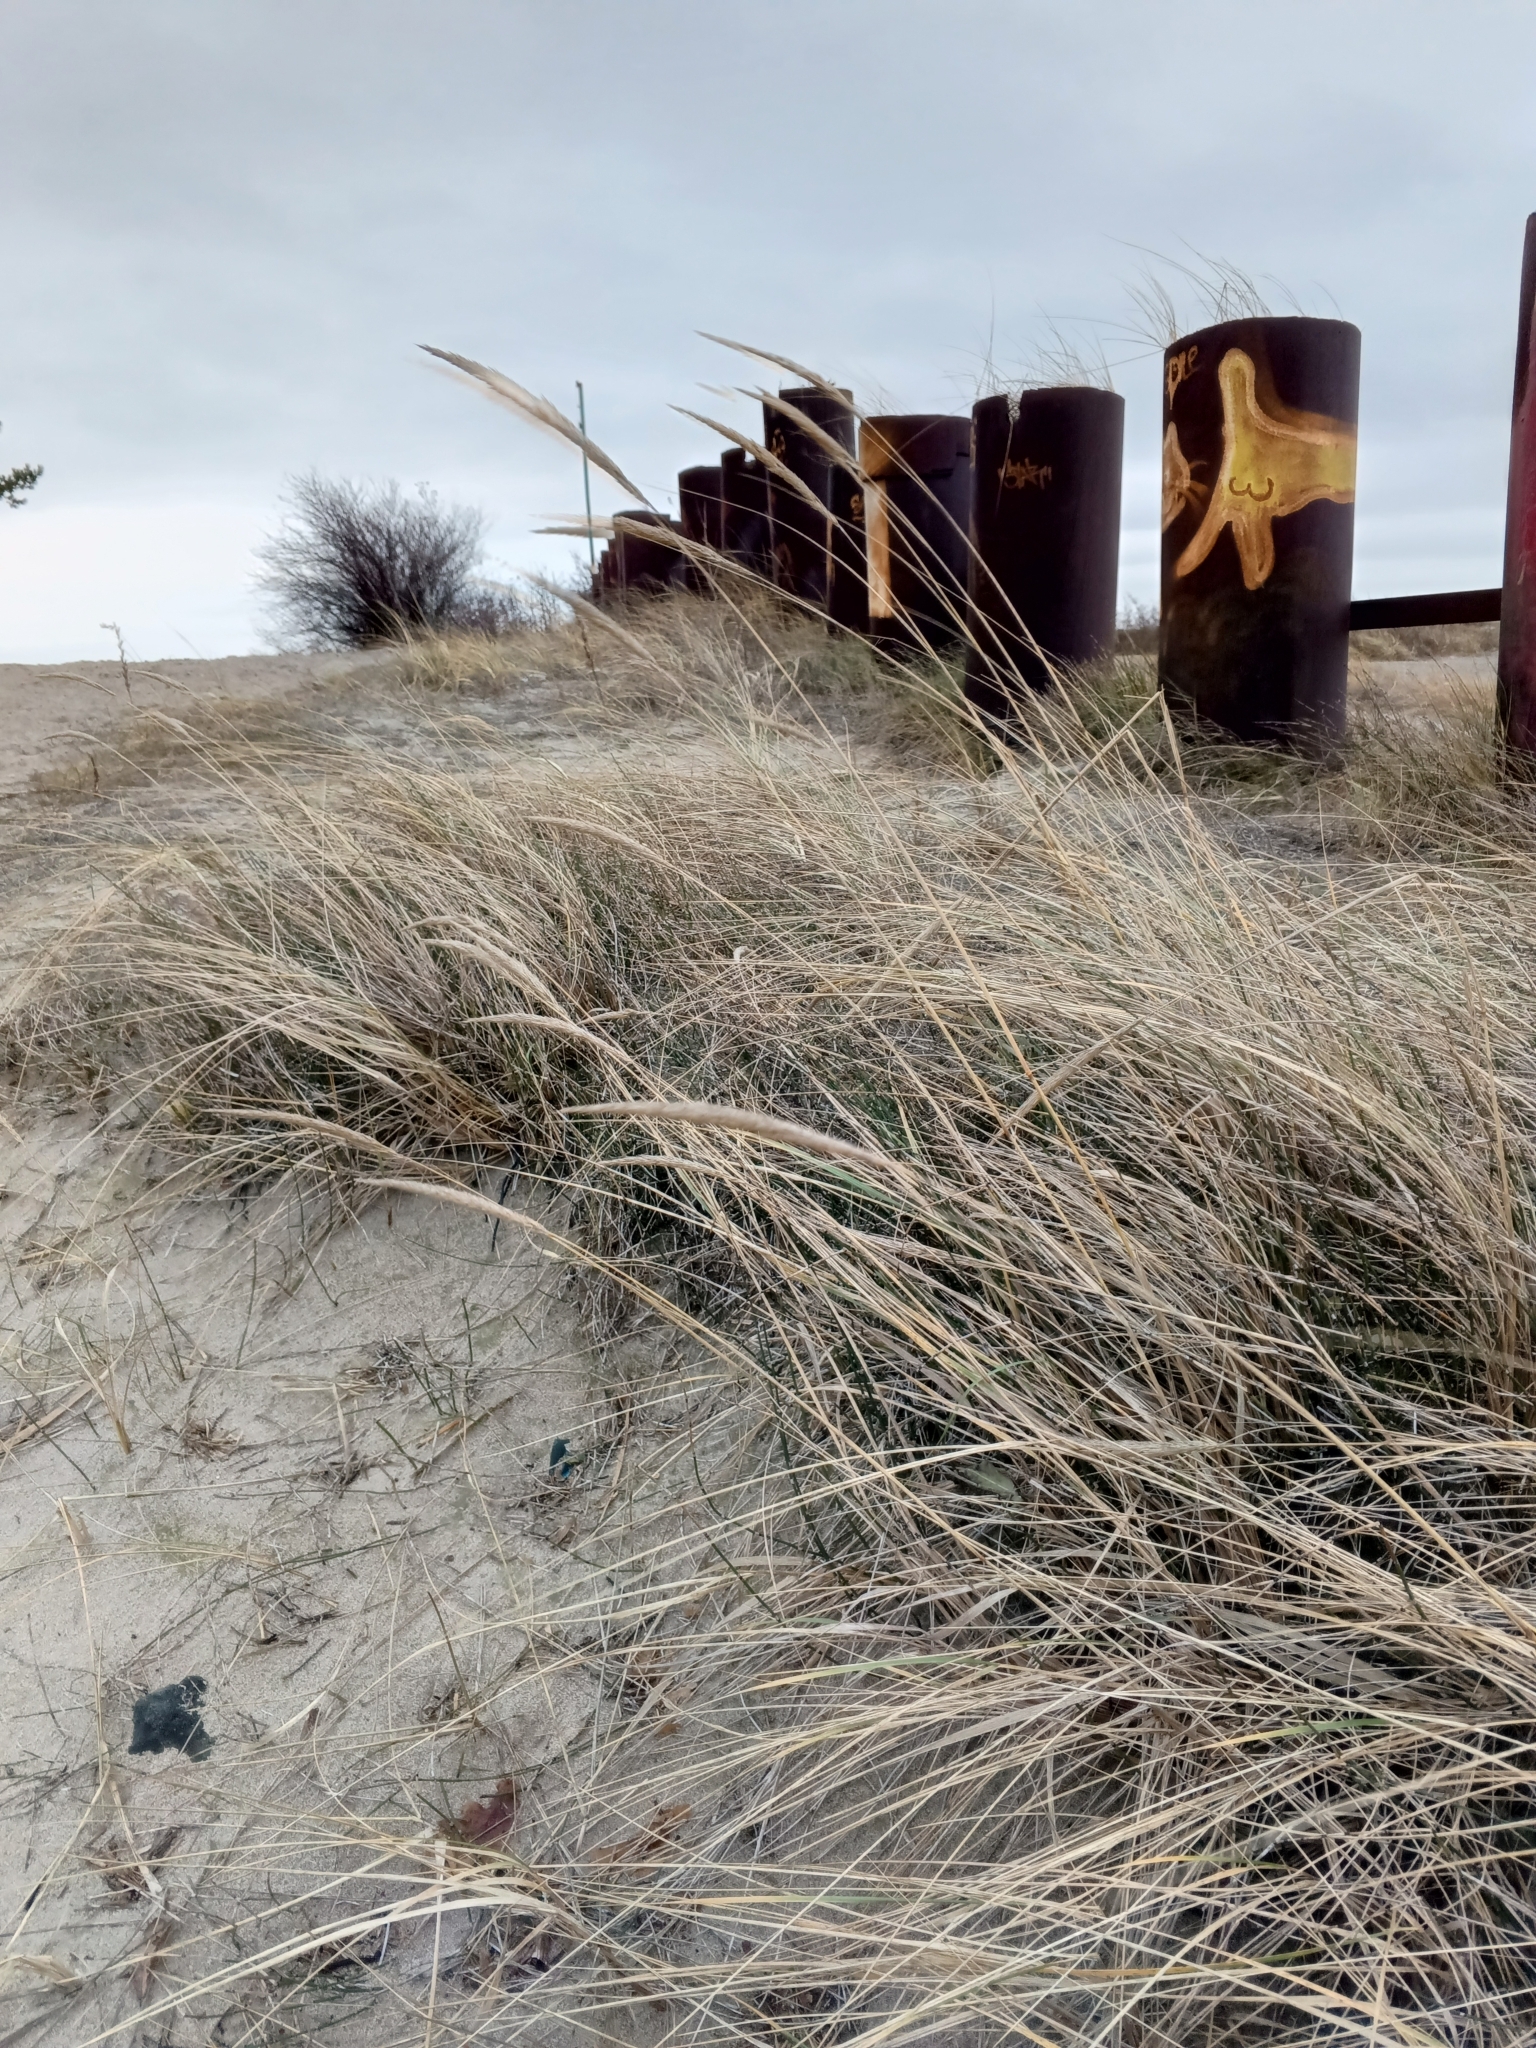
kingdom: Plantae
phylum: Tracheophyta
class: Liliopsida
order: Poales
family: Poaceae
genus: Calamagrostis
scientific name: Calamagrostis arenaria
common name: European beachgrass
